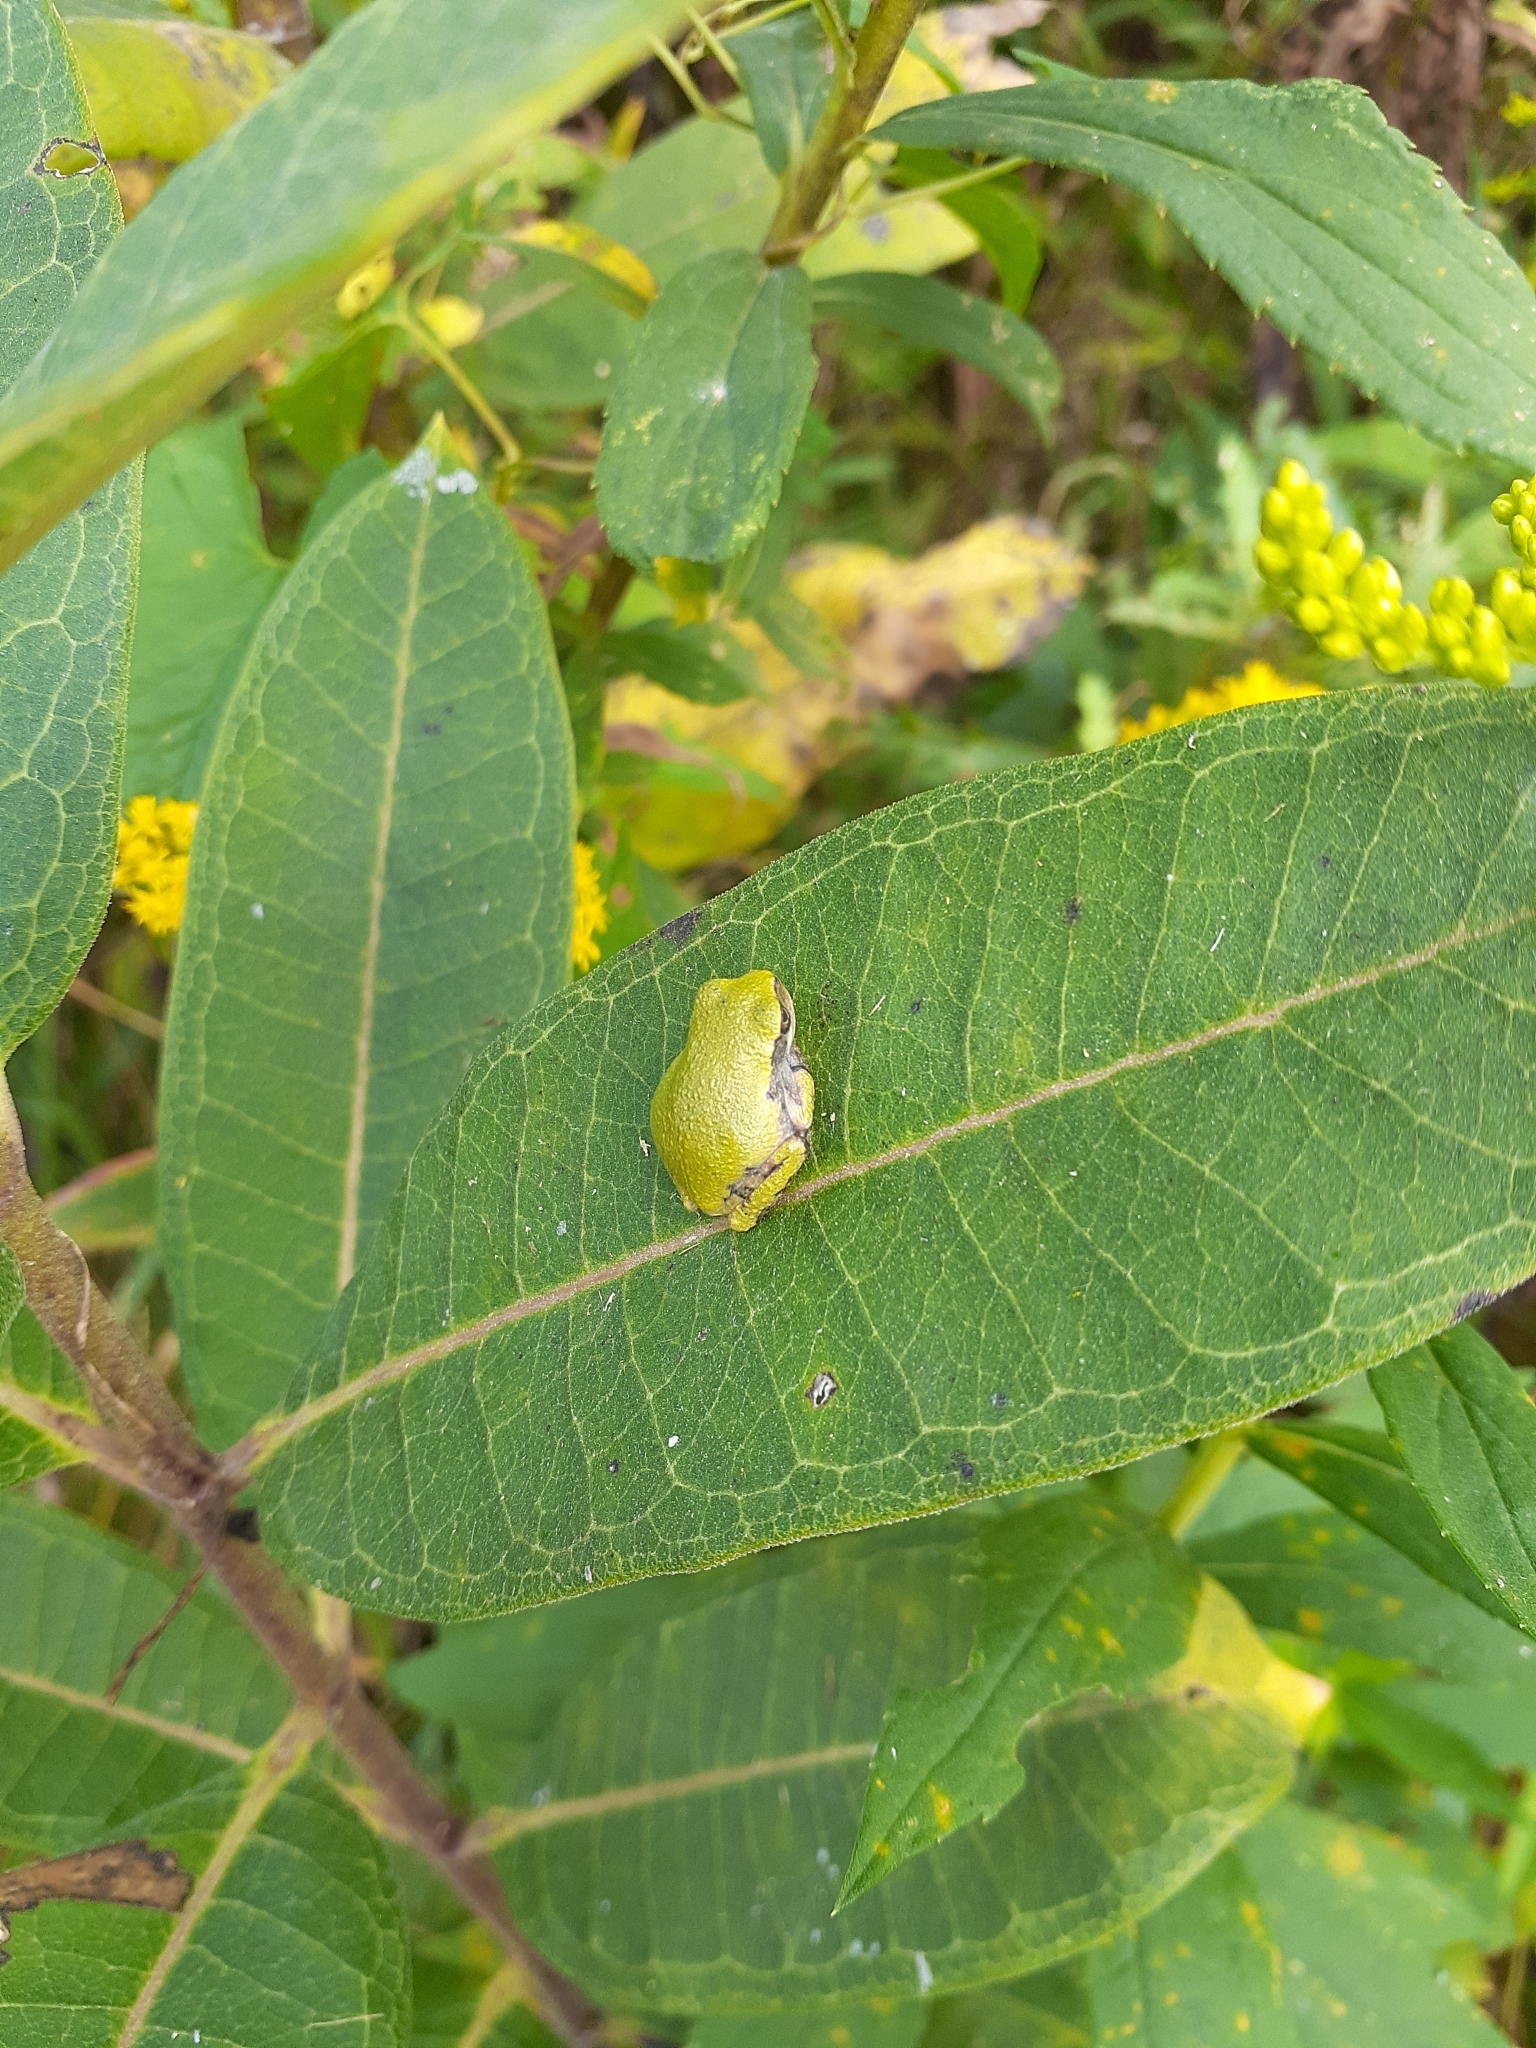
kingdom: Animalia
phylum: Chordata
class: Amphibia
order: Anura
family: Hylidae
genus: Dryophytes
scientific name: Dryophytes versicolor
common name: Gray treefrog
